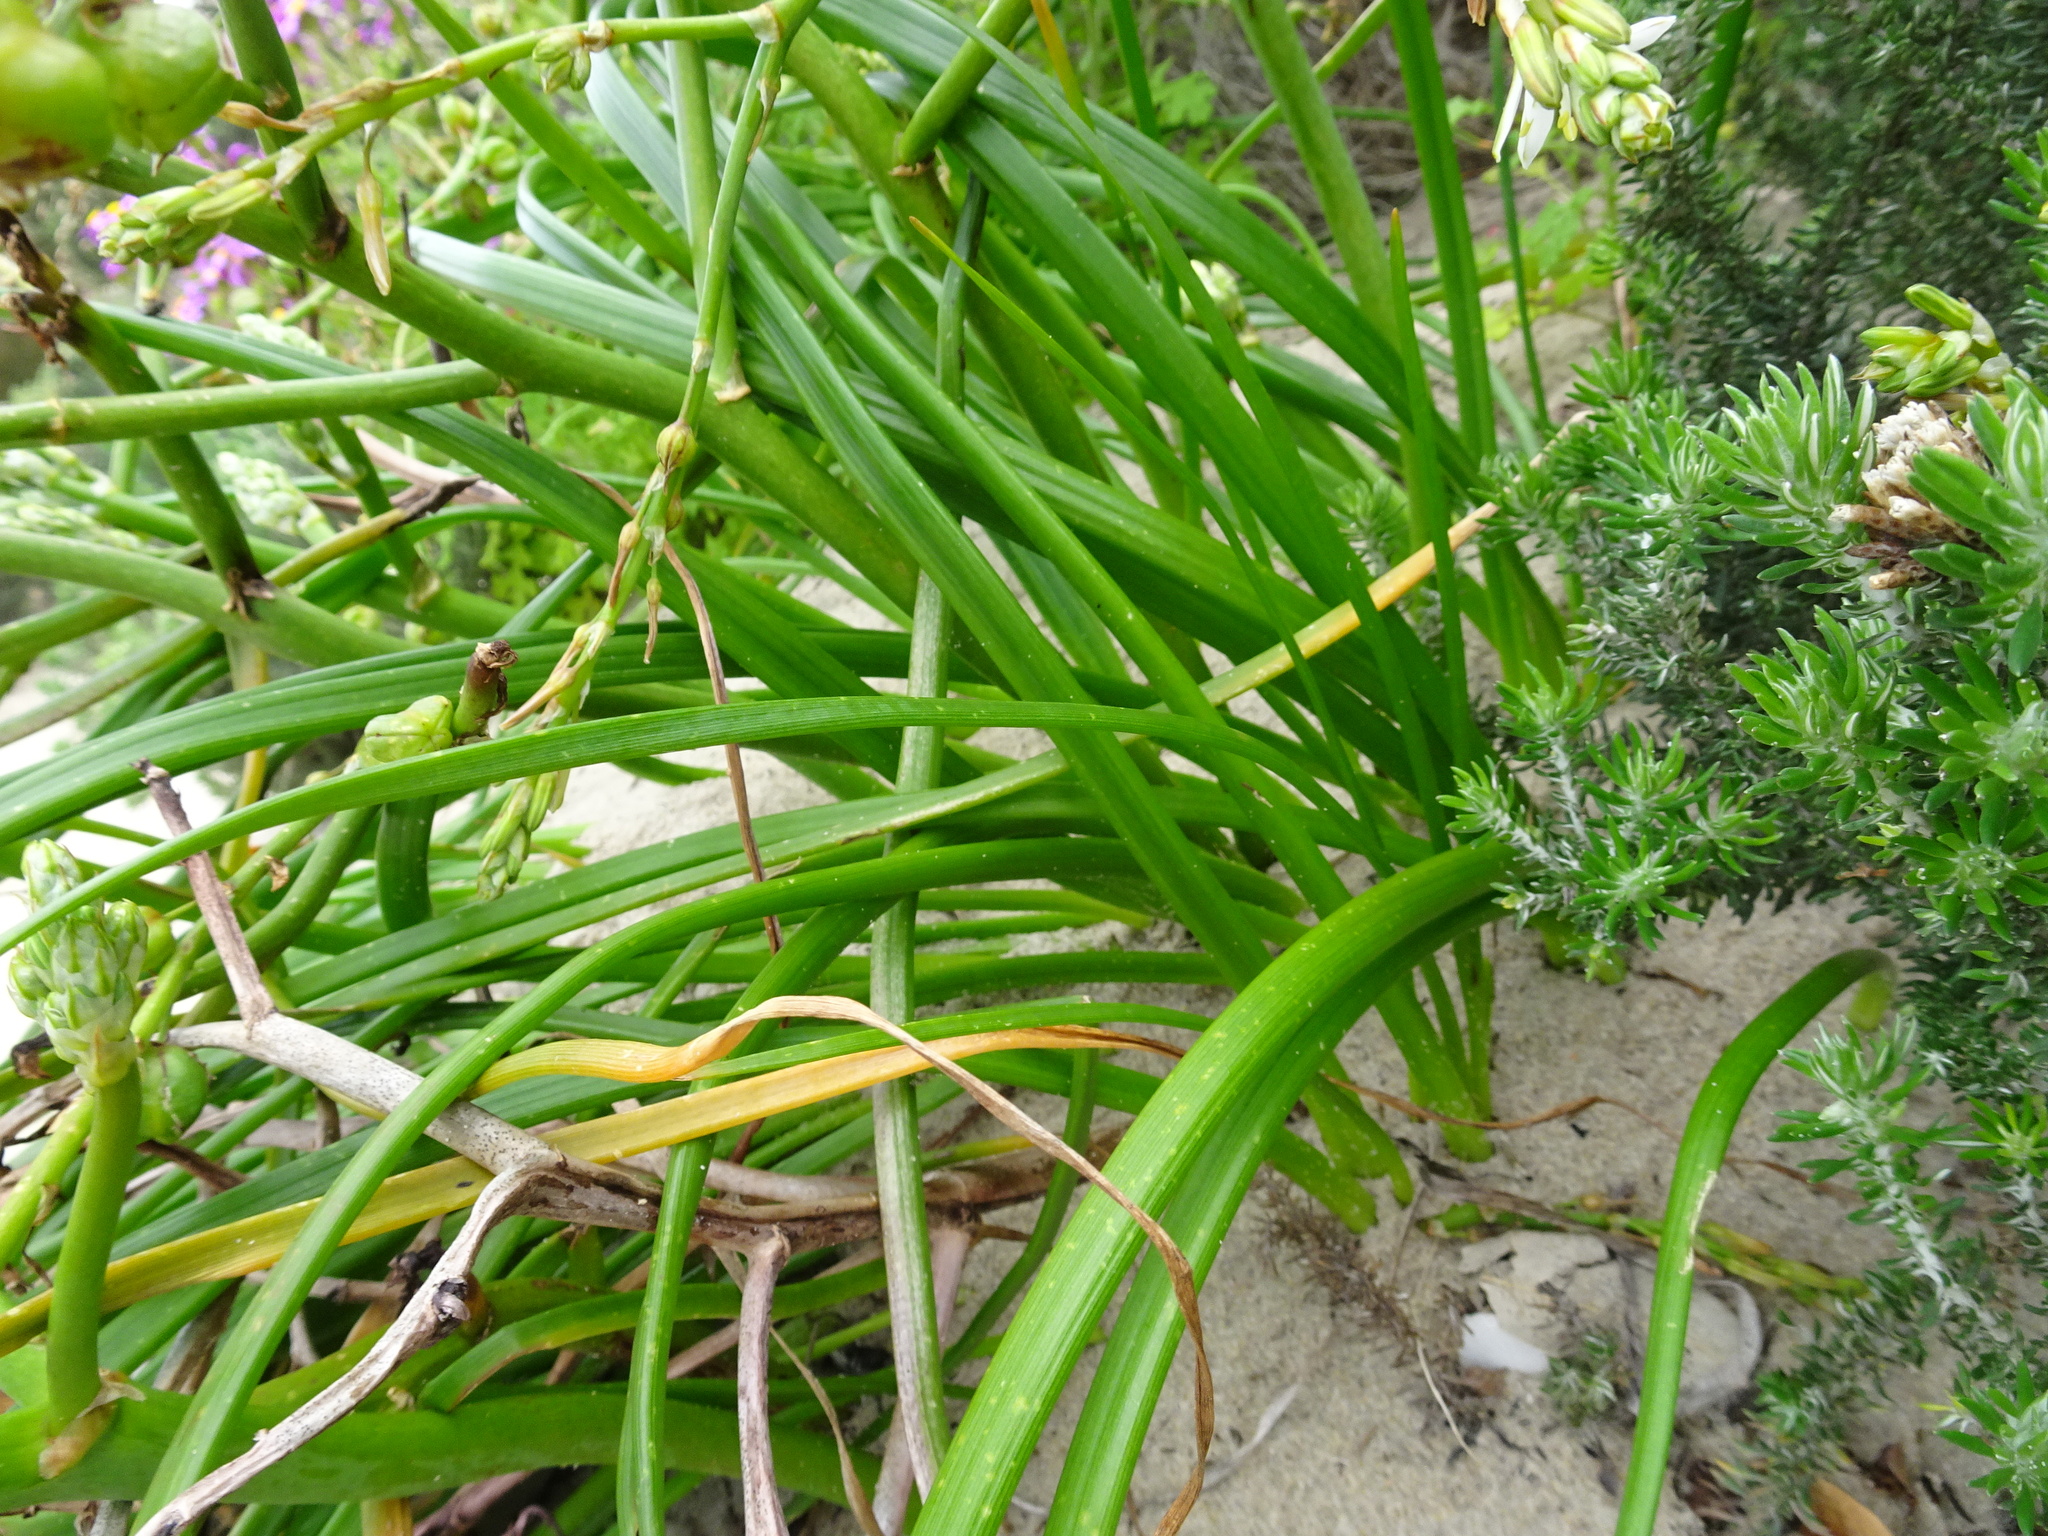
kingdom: Plantae
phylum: Tracheophyta
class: Liliopsida
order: Asparagales
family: Asphodelaceae
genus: Trachyandra
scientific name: Trachyandra divaricata
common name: Dune onionweed
